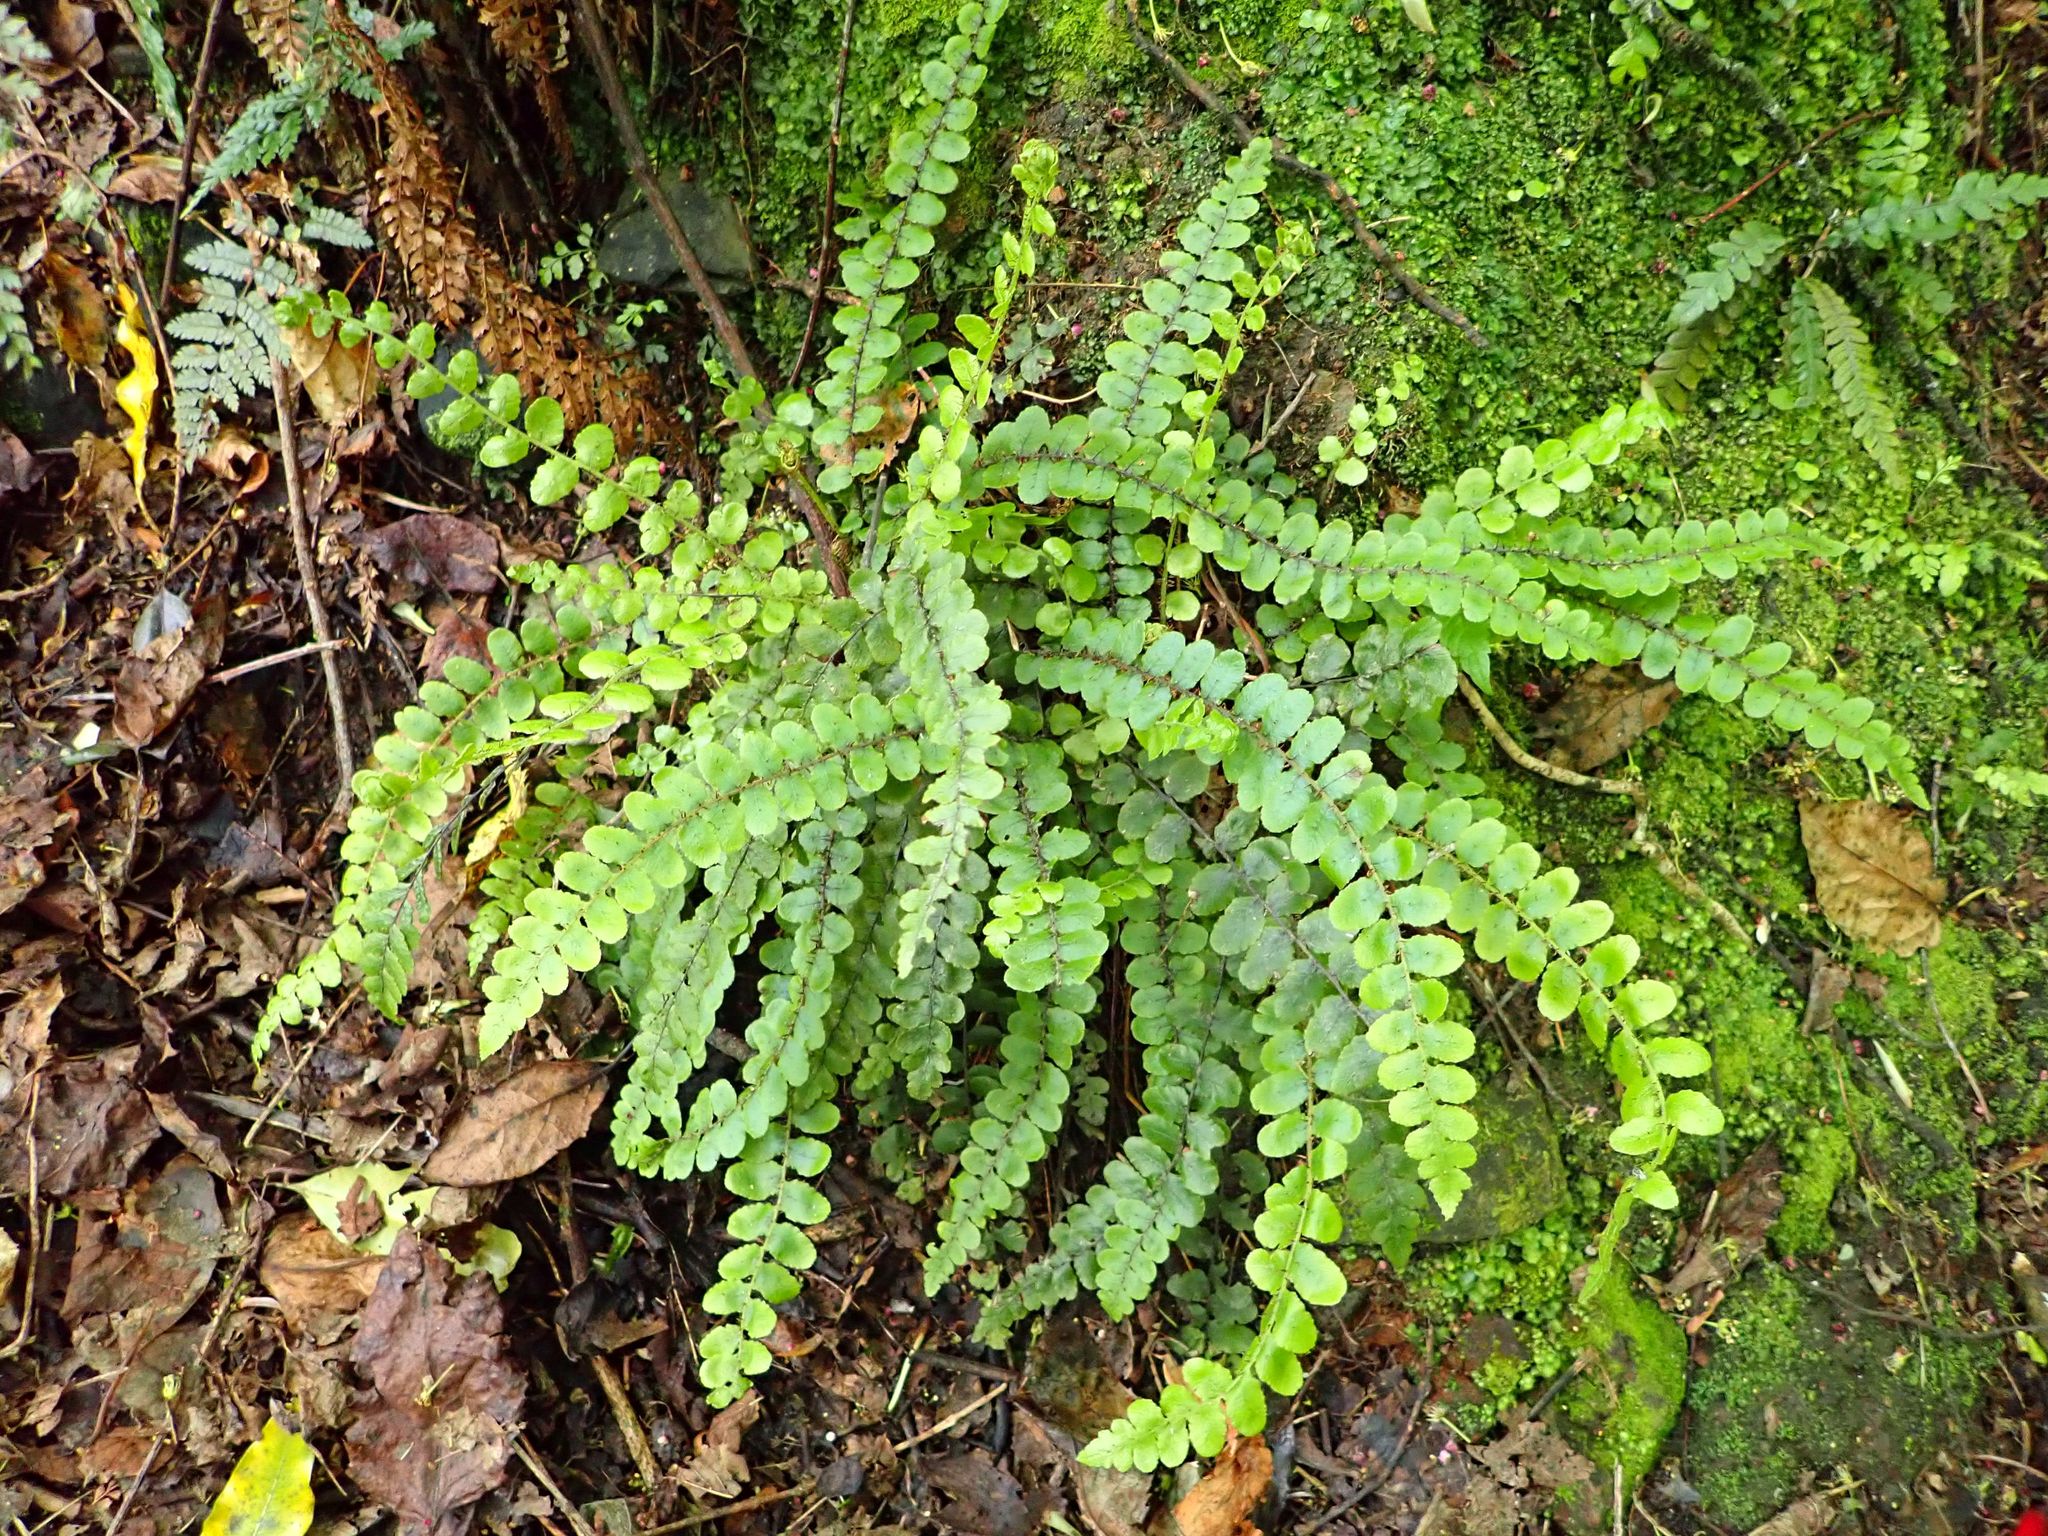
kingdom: Plantae
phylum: Tracheophyta
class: Polypodiopsida
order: Polypodiales
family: Blechnaceae
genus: Cranfillia
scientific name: Cranfillia fluviatilis
